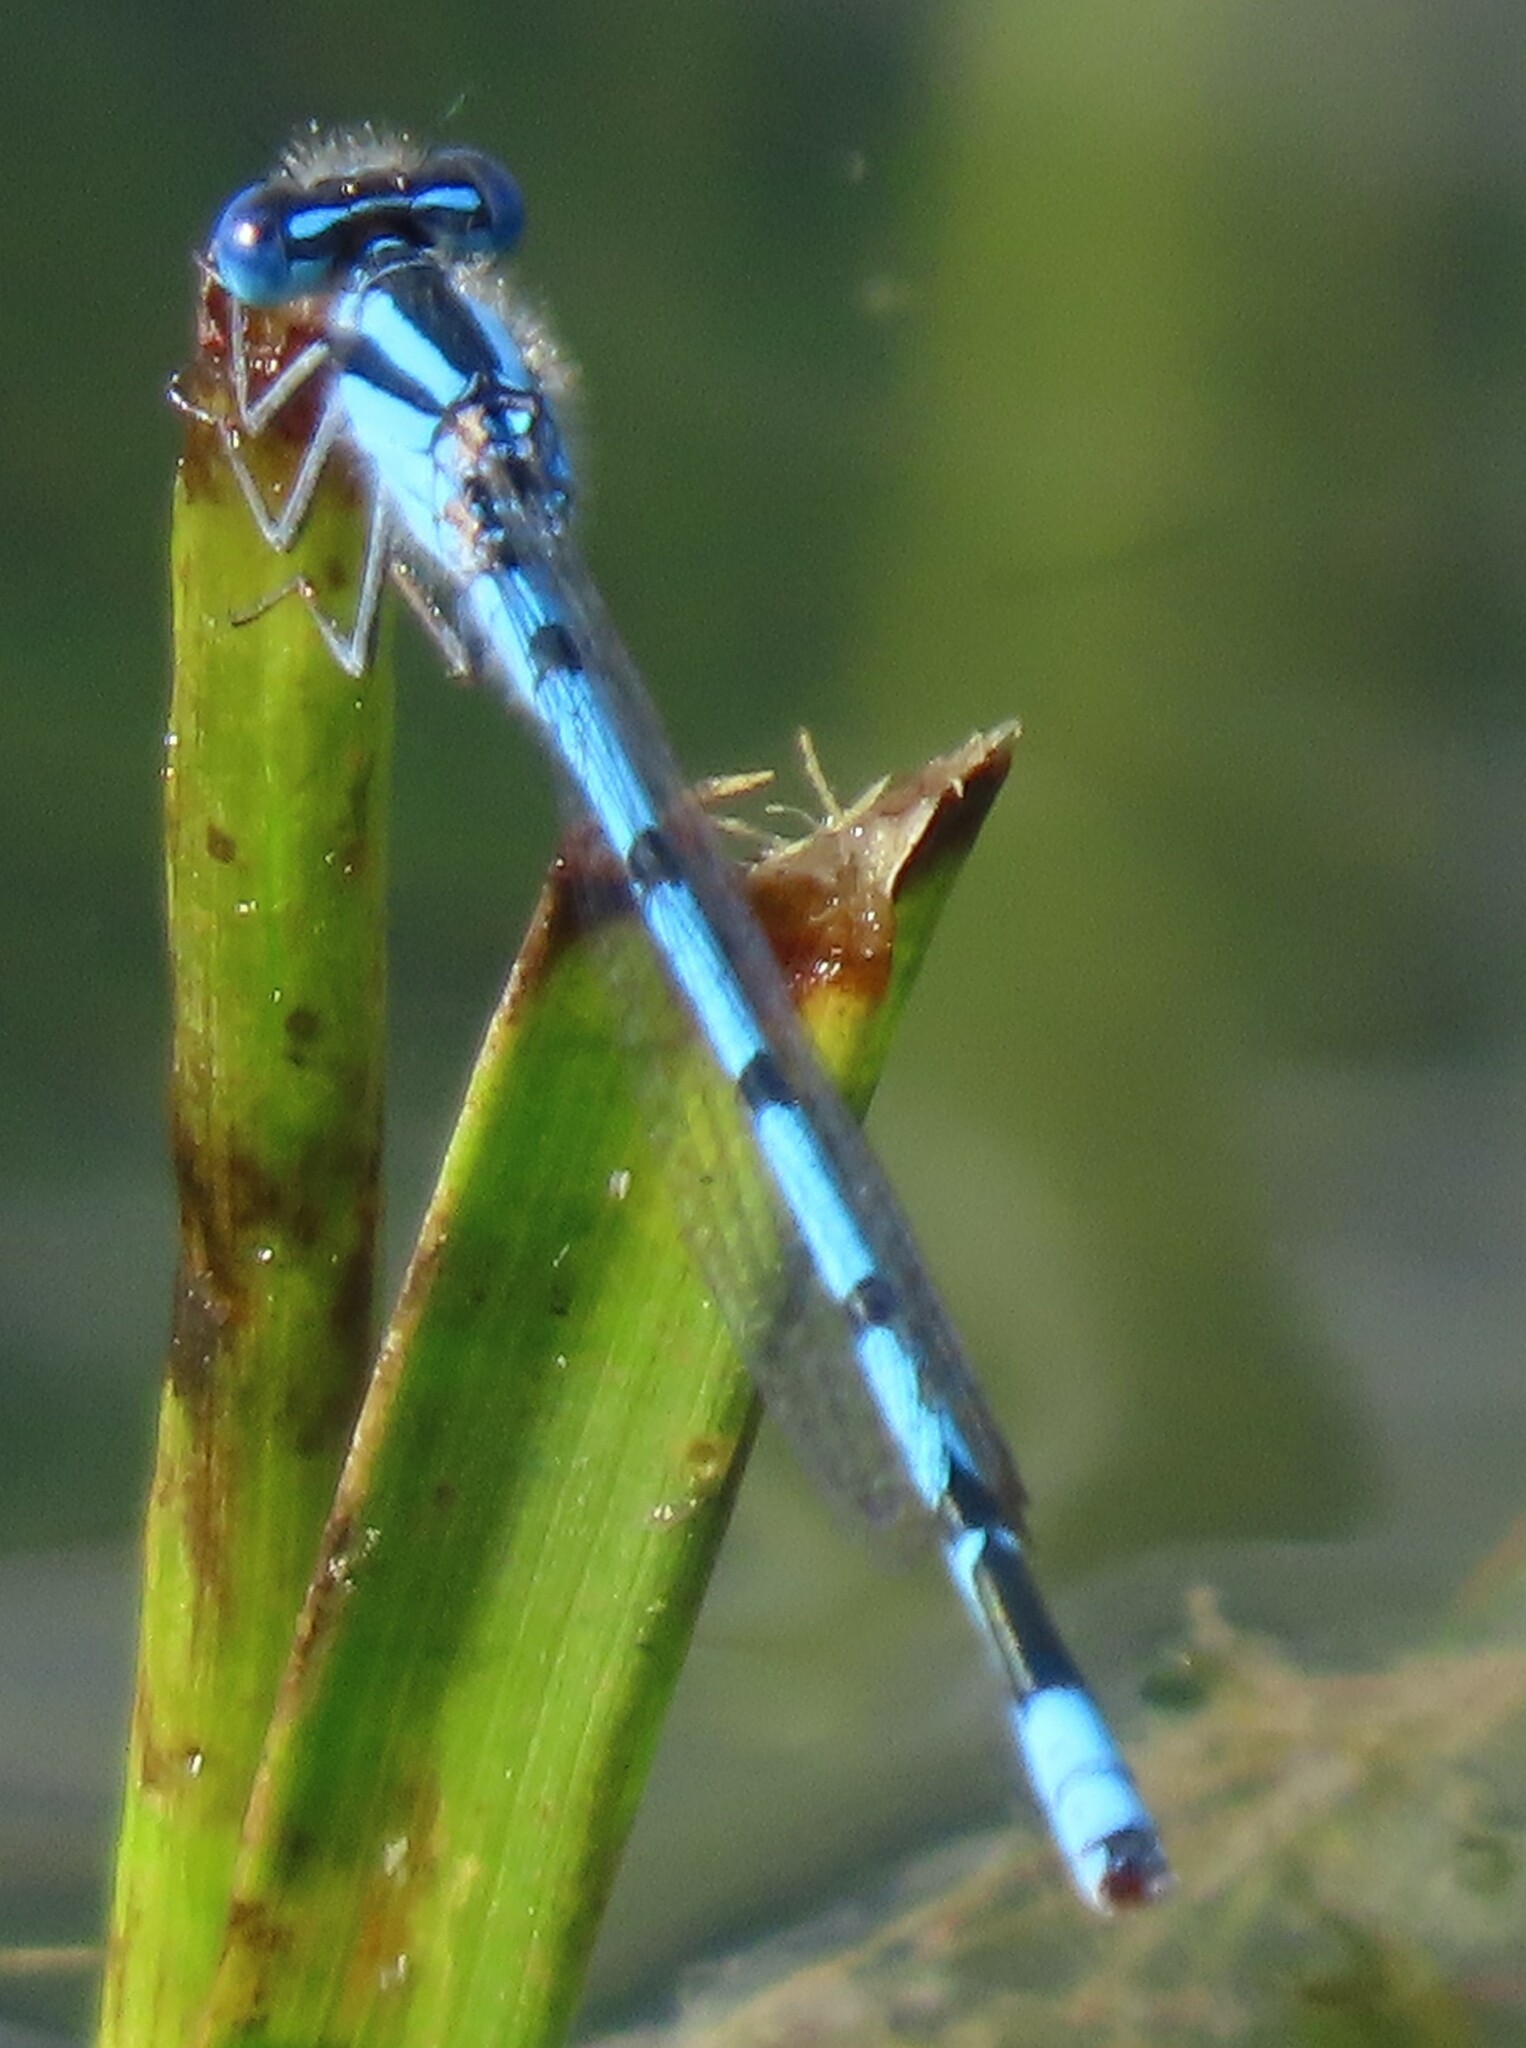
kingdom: Animalia
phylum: Arthropoda
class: Insecta
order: Odonata
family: Coenagrionidae
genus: Enallagma
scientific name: Enallagma doubledayi
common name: Atlantic bluet
